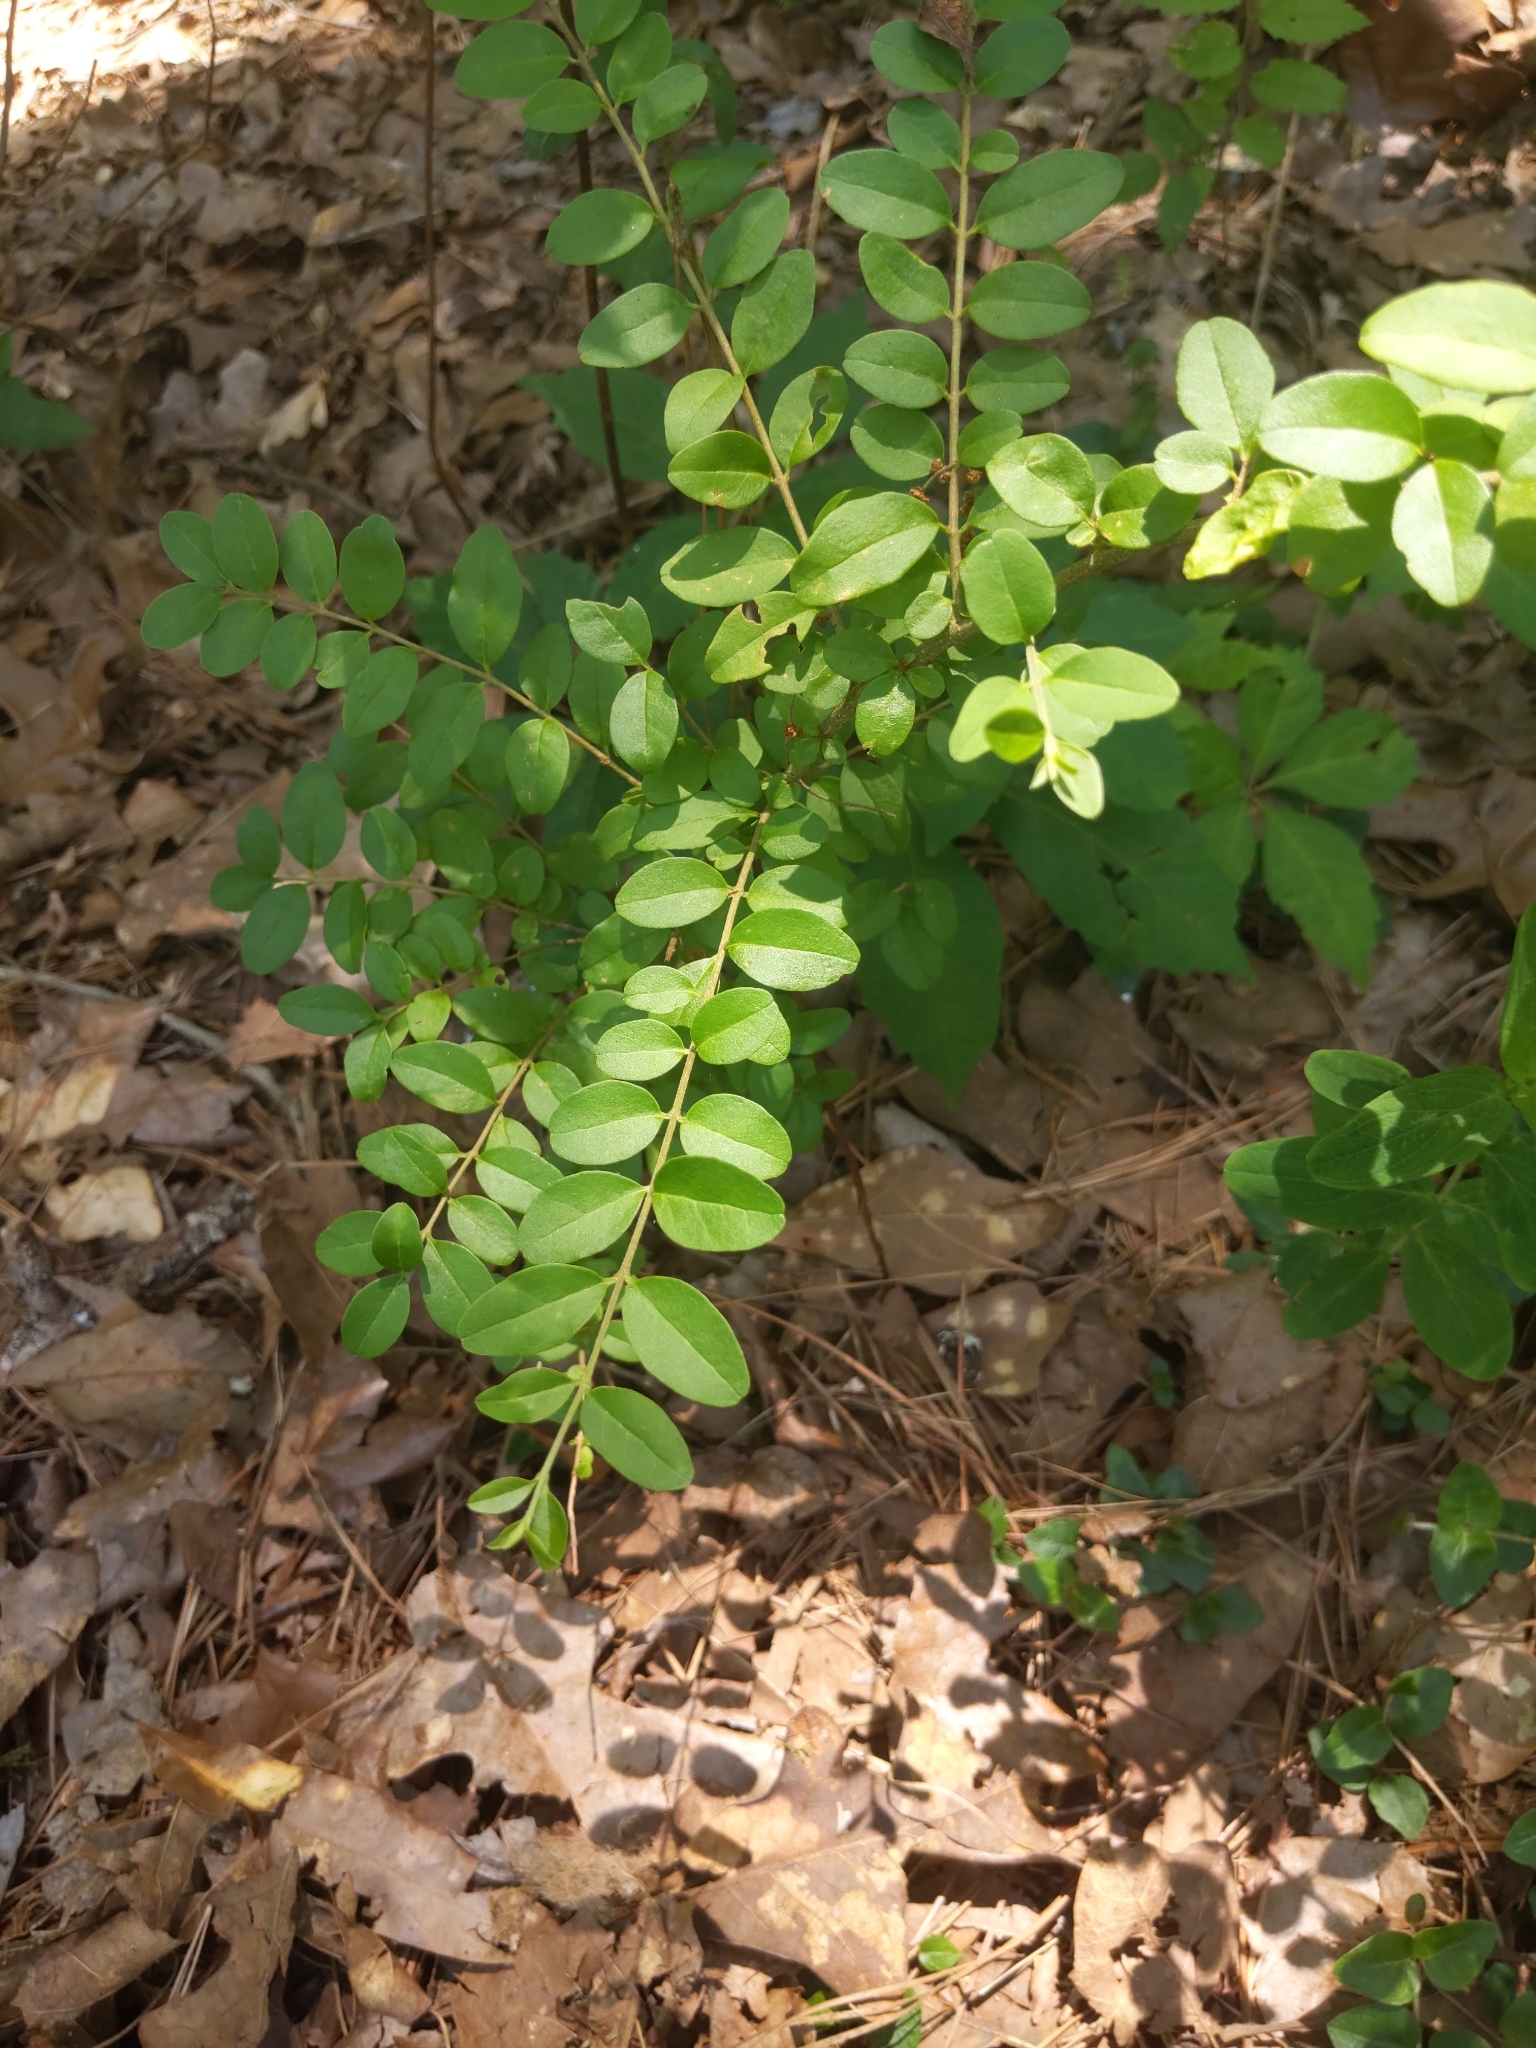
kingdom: Plantae
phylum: Tracheophyta
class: Magnoliopsida
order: Lamiales
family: Oleaceae
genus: Ligustrum
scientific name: Ligustrum sinense
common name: Chinese privet
